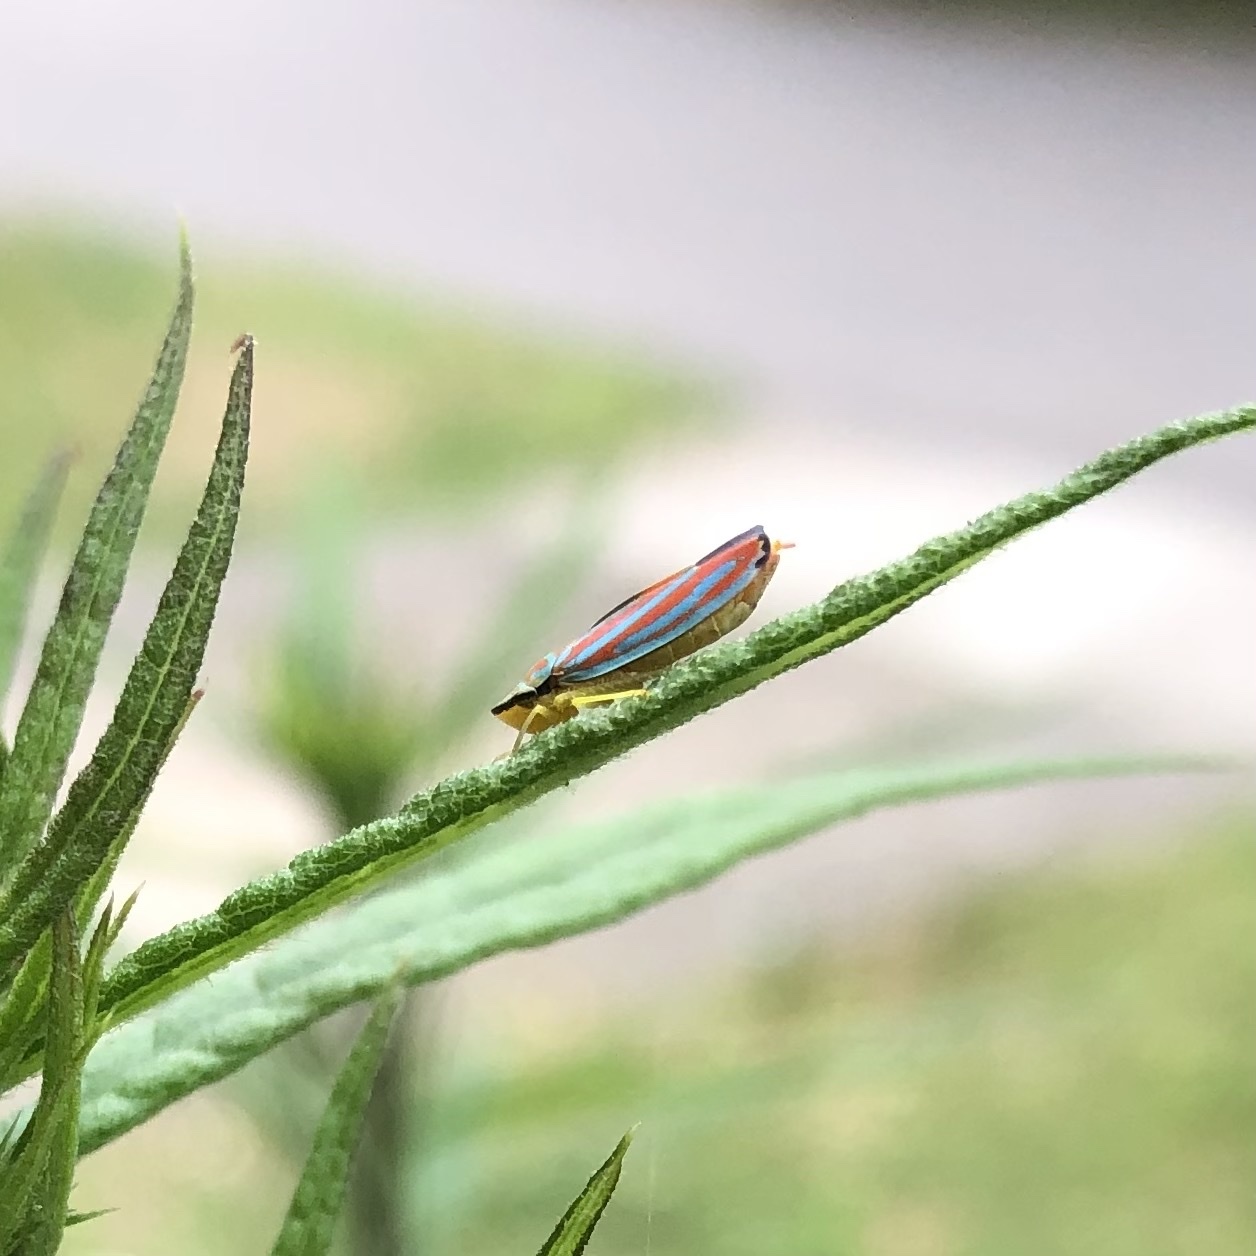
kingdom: Animalia
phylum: Arthropoda
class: Insecta
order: Hemiptera
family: Cicadellidae
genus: Graphocephala
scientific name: Graphocephala coccinea
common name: Candy-striped leafhopper
